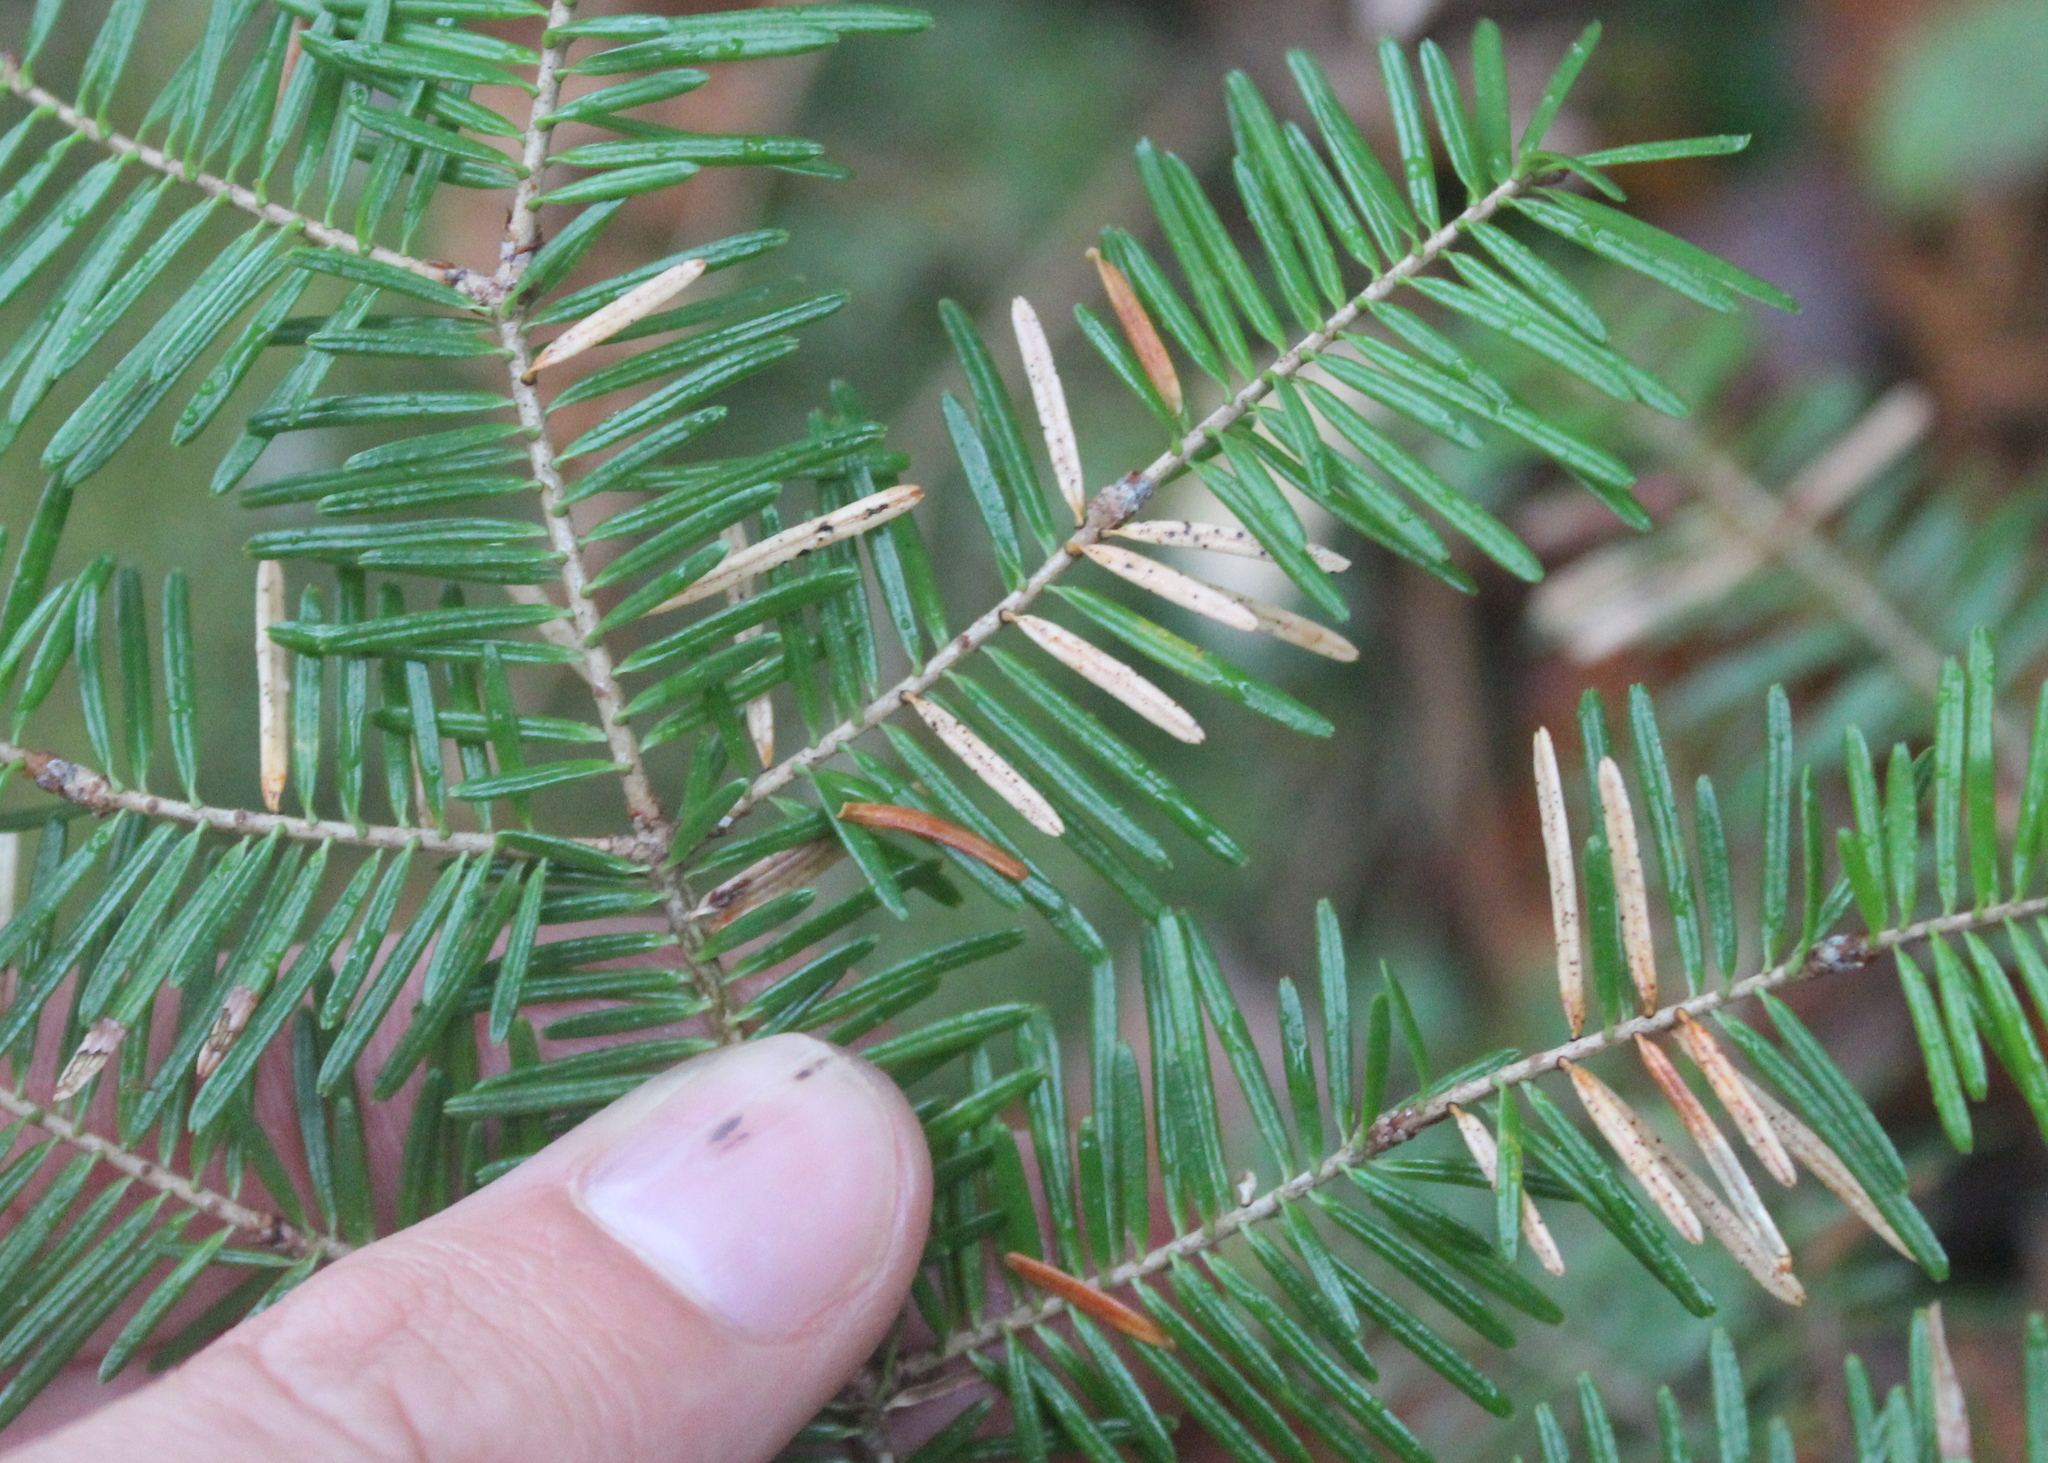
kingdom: Plantae
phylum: Tracheophyta
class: Pinopsida
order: Pinales
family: Pinaceae
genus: Abies
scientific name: Abies balsamea
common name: Balsam fir
